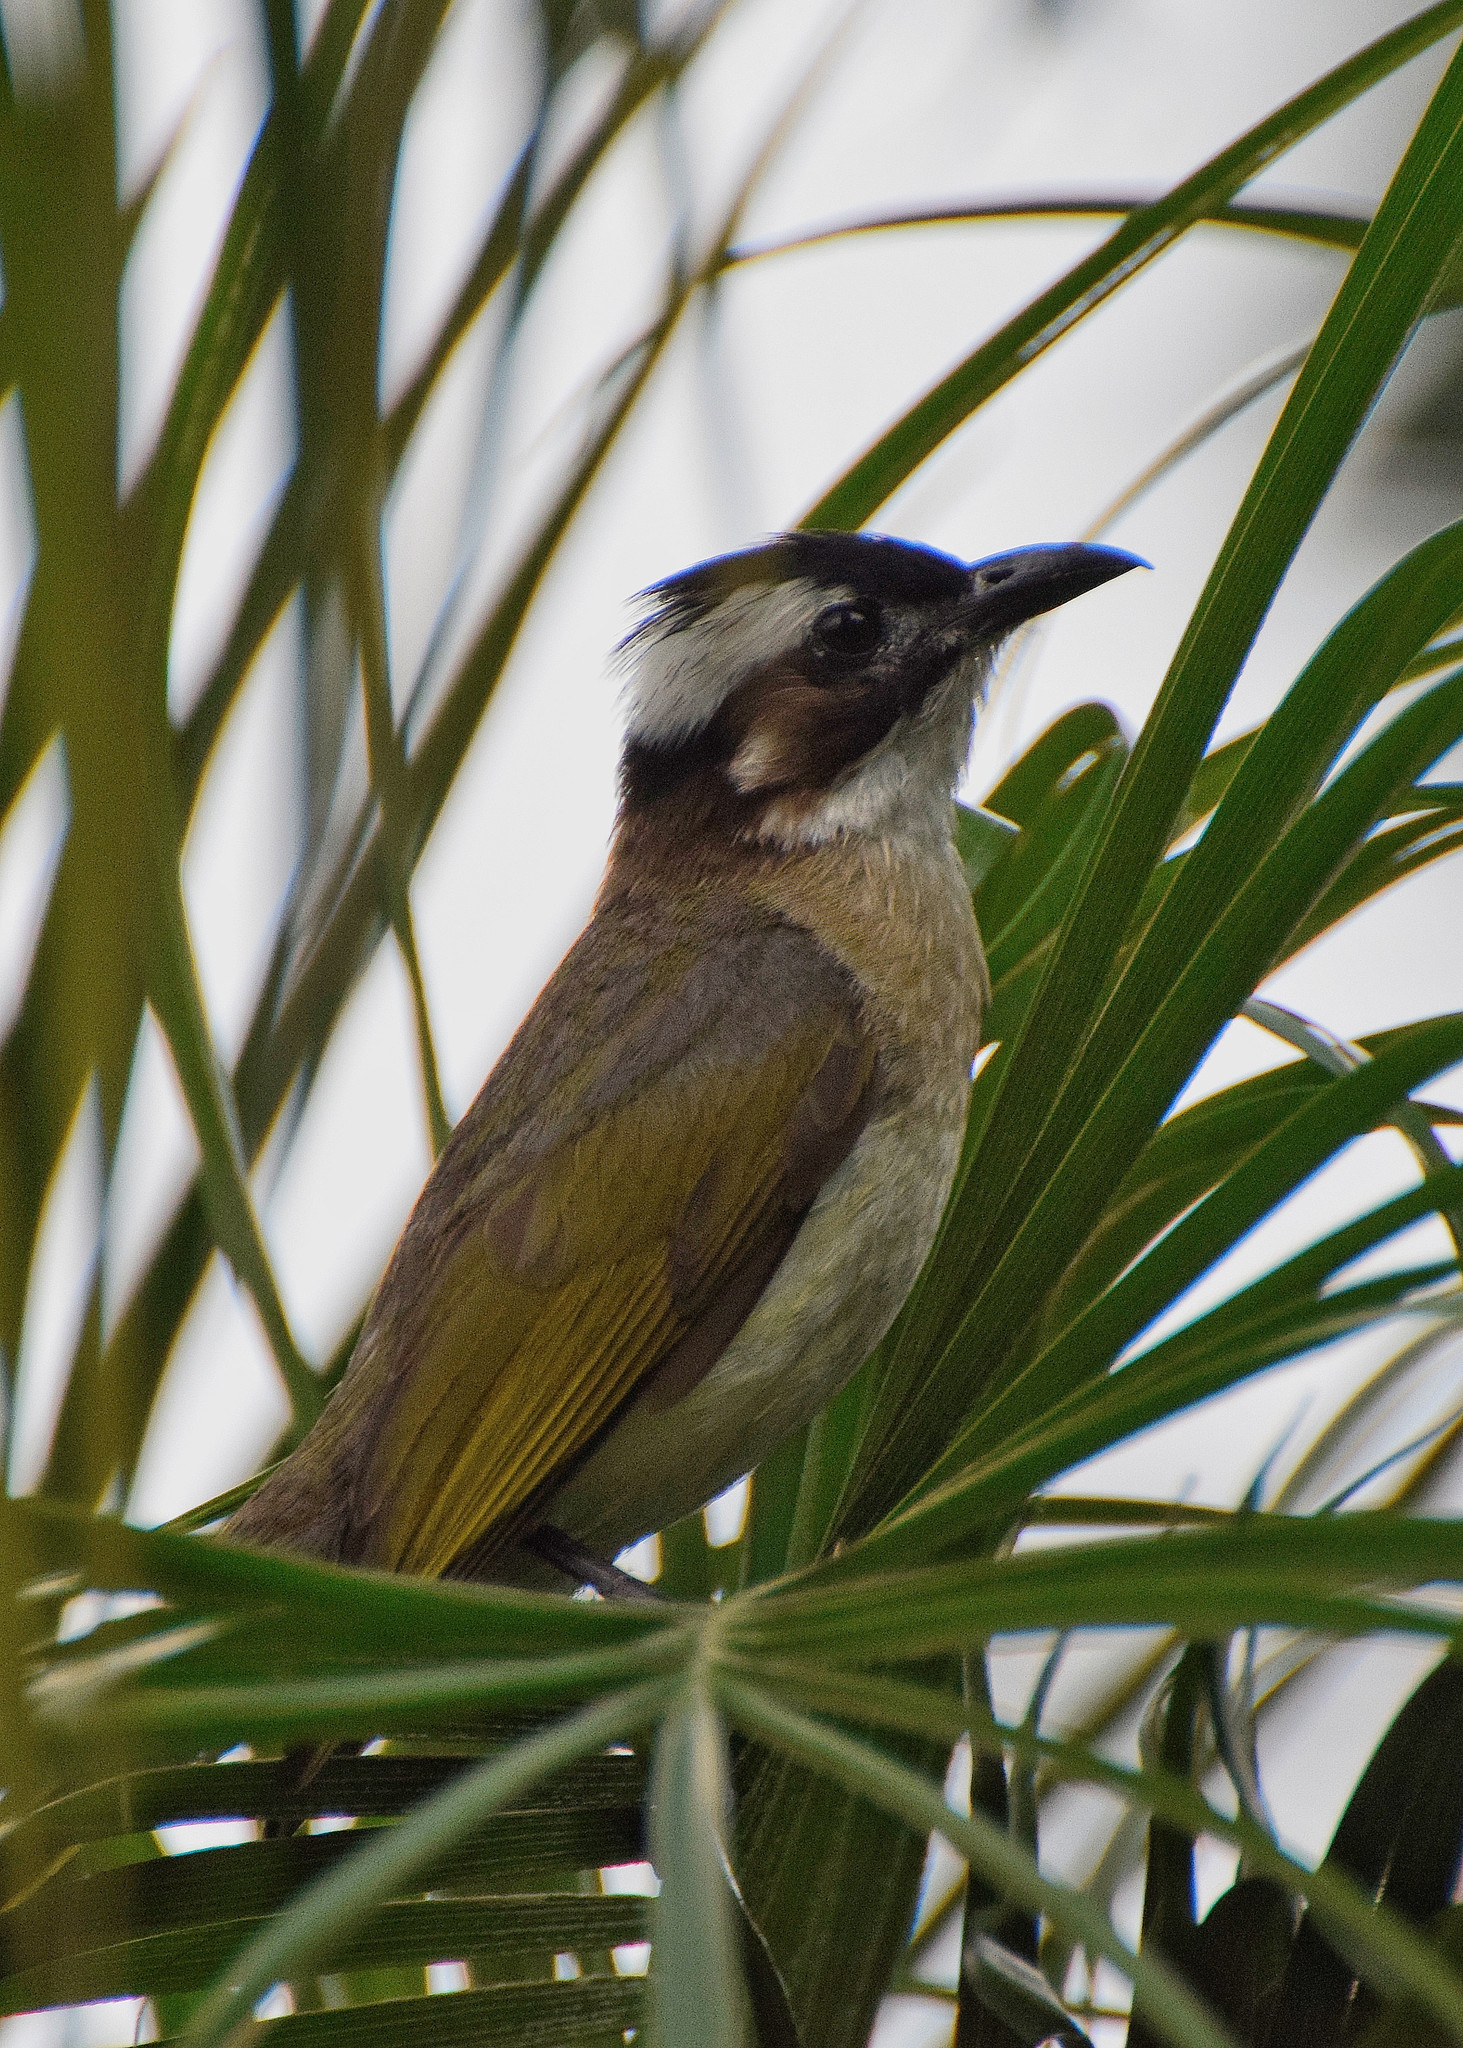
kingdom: Animalia
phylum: Chordata
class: Aves
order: Passeriformes
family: Pycnonotidae
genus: Pycnonotus
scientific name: Pycnonotus sinensis
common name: Light-vented bulbul
